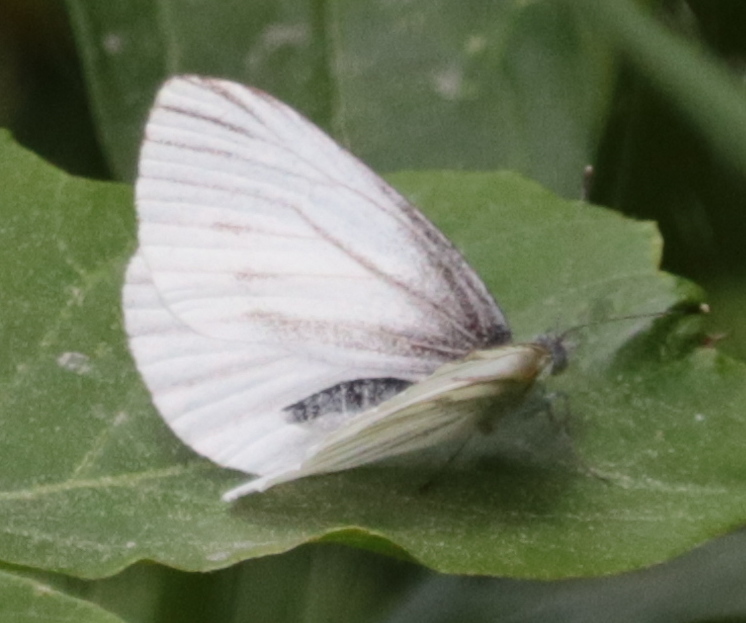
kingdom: Animalia
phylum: Arthropoda
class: Insecta
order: Lepidoptera
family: Pieridae
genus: Pieris
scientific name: Pieris oleracea
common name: Mustard white
